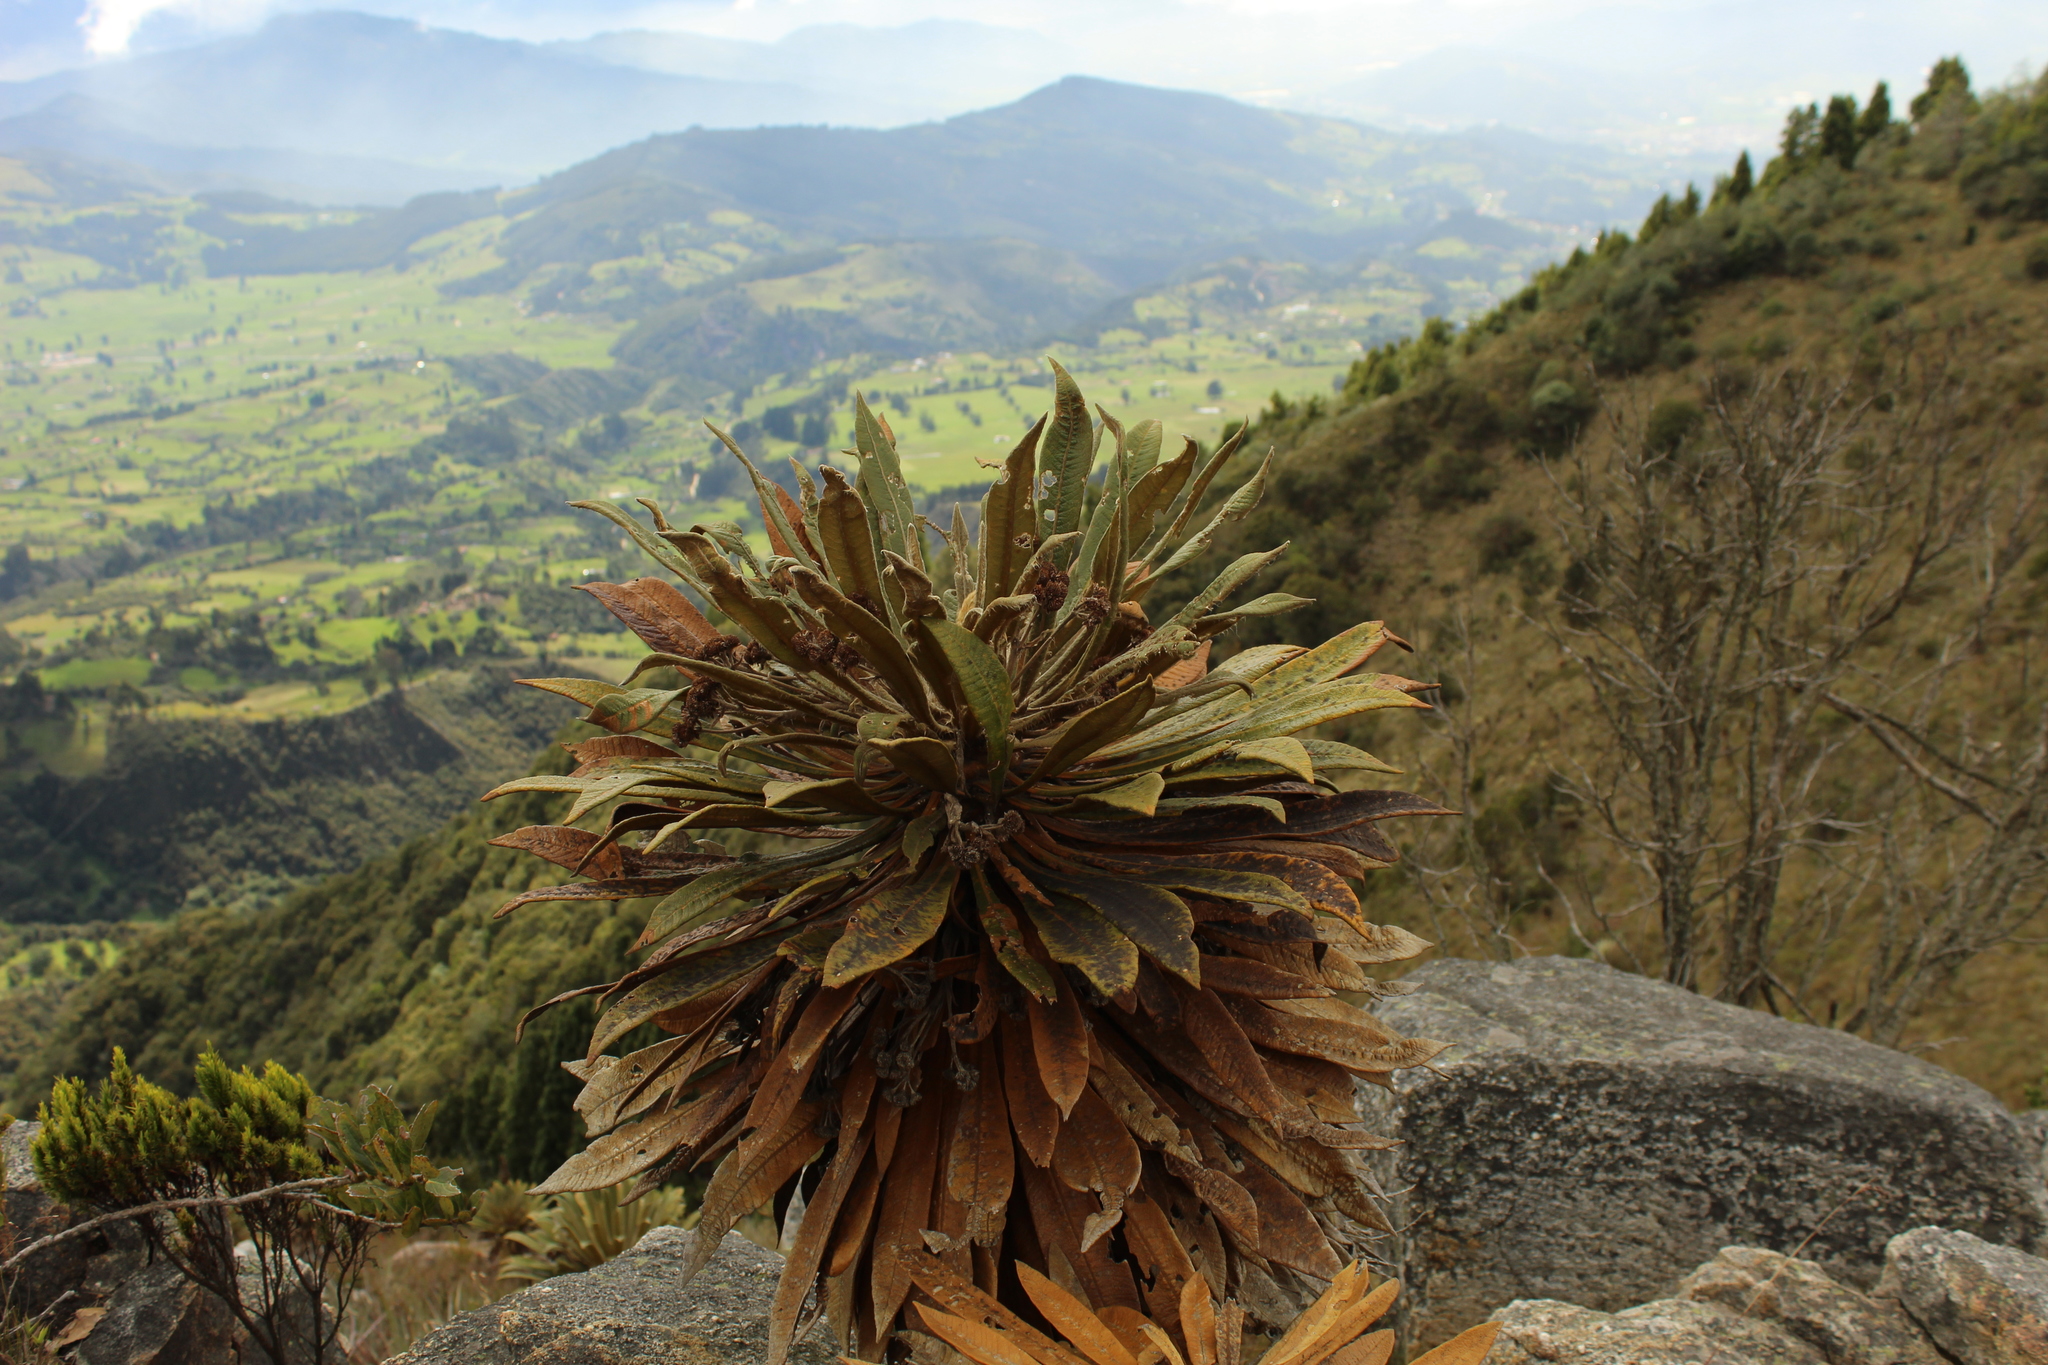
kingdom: Plantae
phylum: Tracheophyta
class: Magnoliopsida
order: Asterales
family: Asteraceae
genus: Espeletia
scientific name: Espeletia guacharaca
